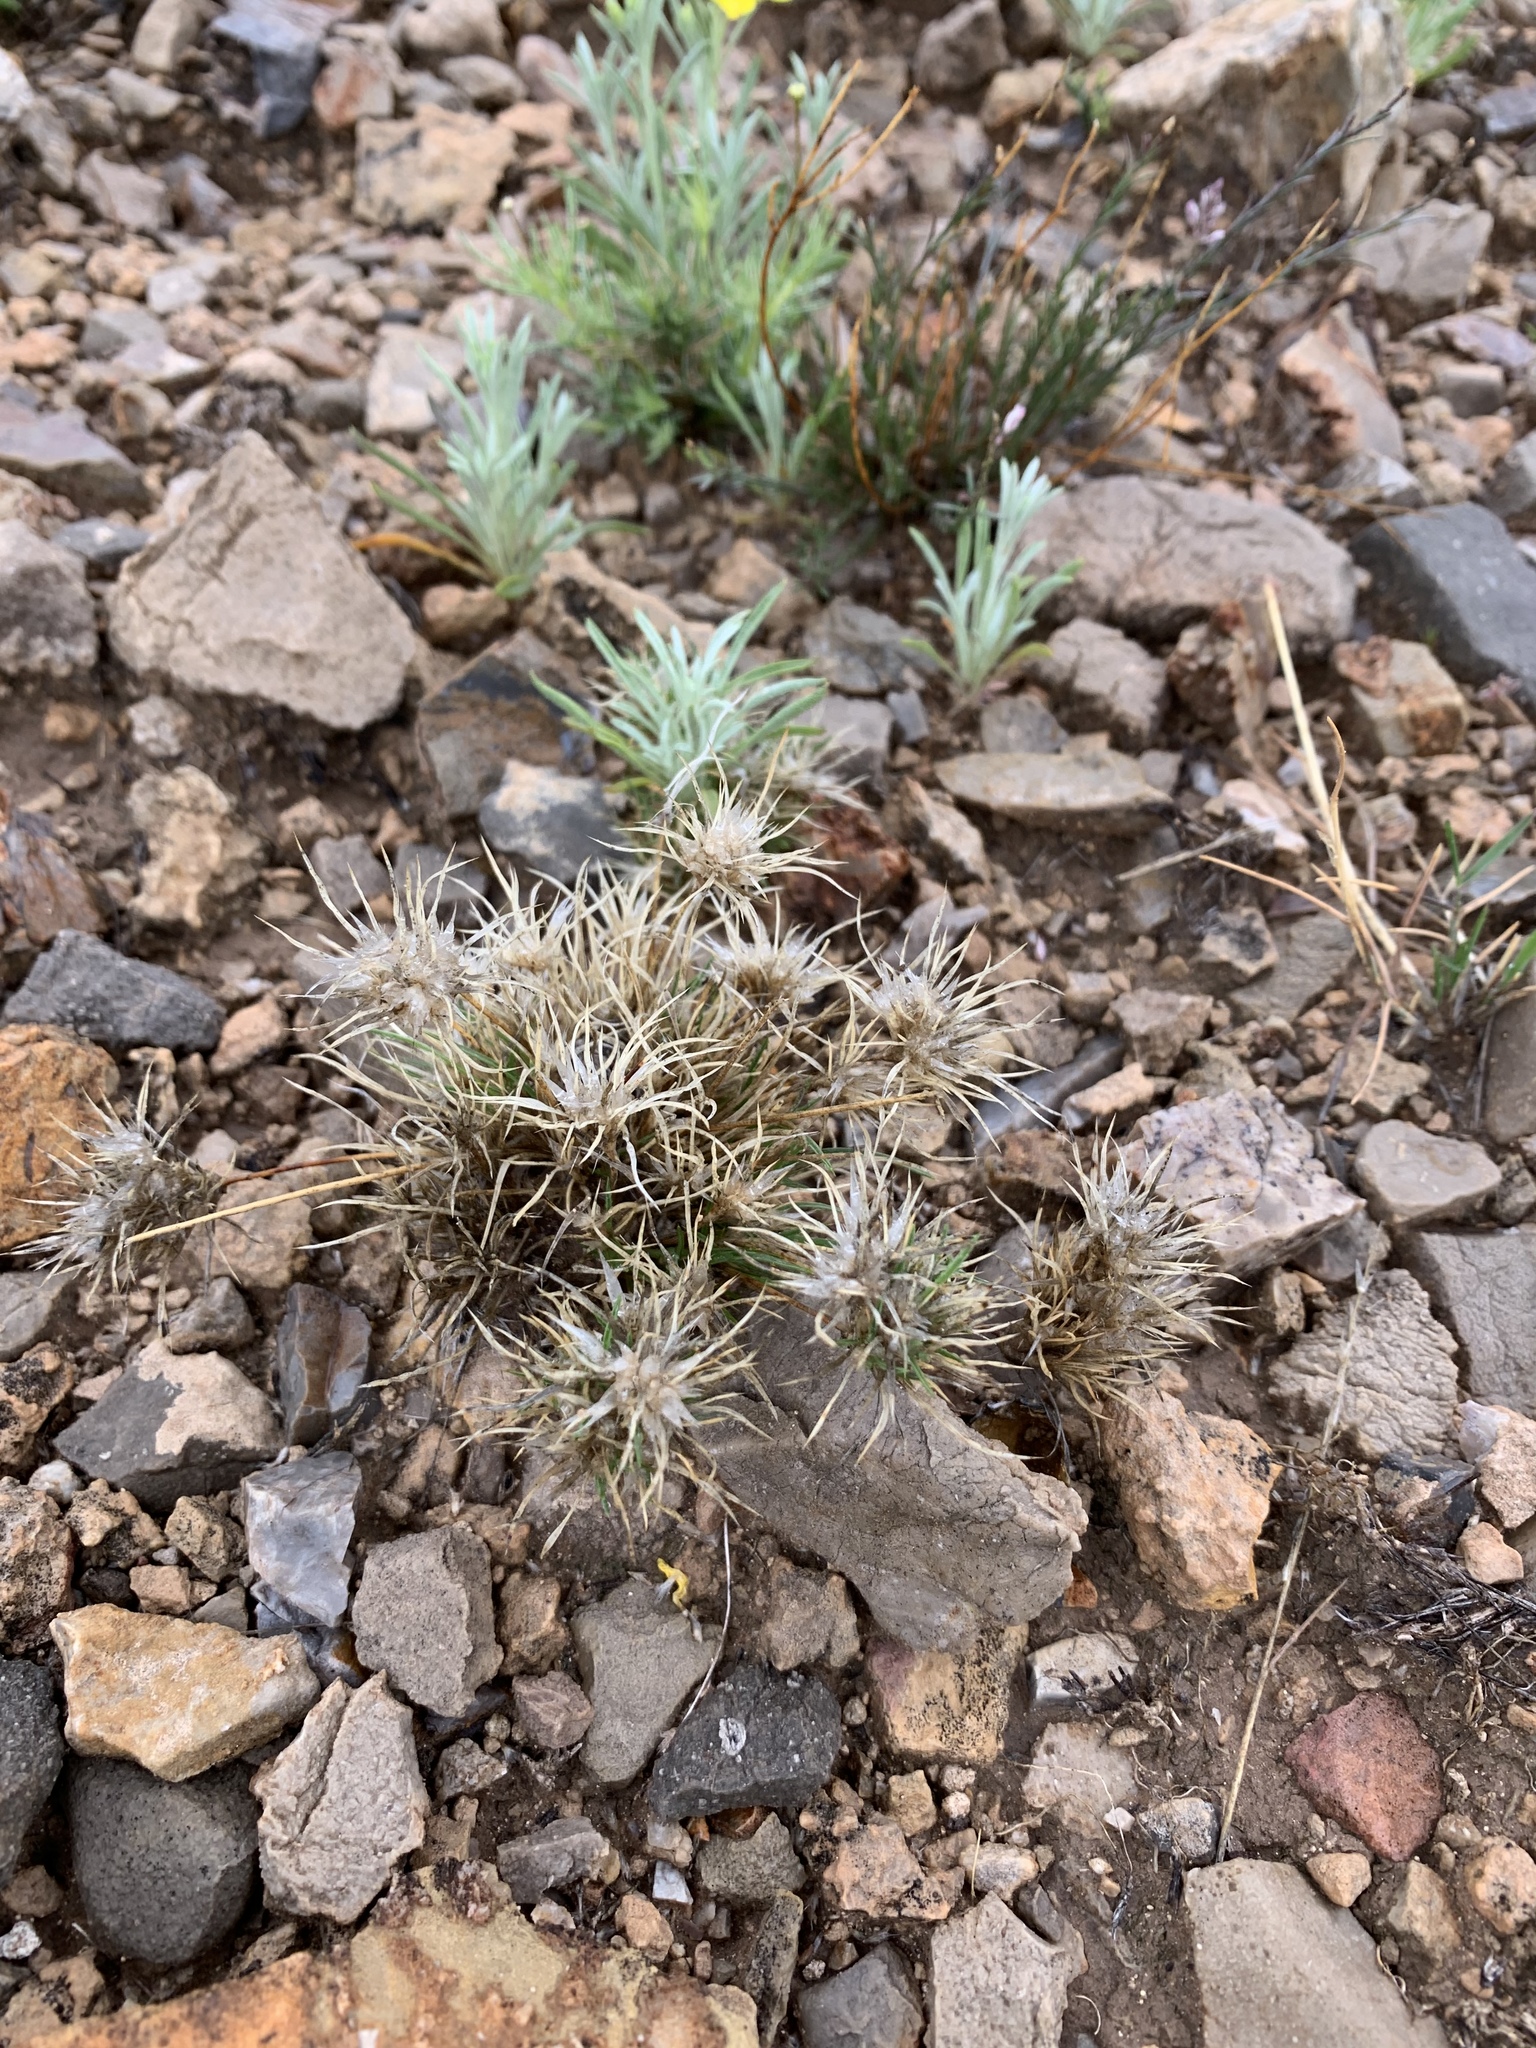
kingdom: Plantae
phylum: Tracheophyta
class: Liliopsida
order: Poales
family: Poaceae
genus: Dasyochloa
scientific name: Dasyochloa pulchella
